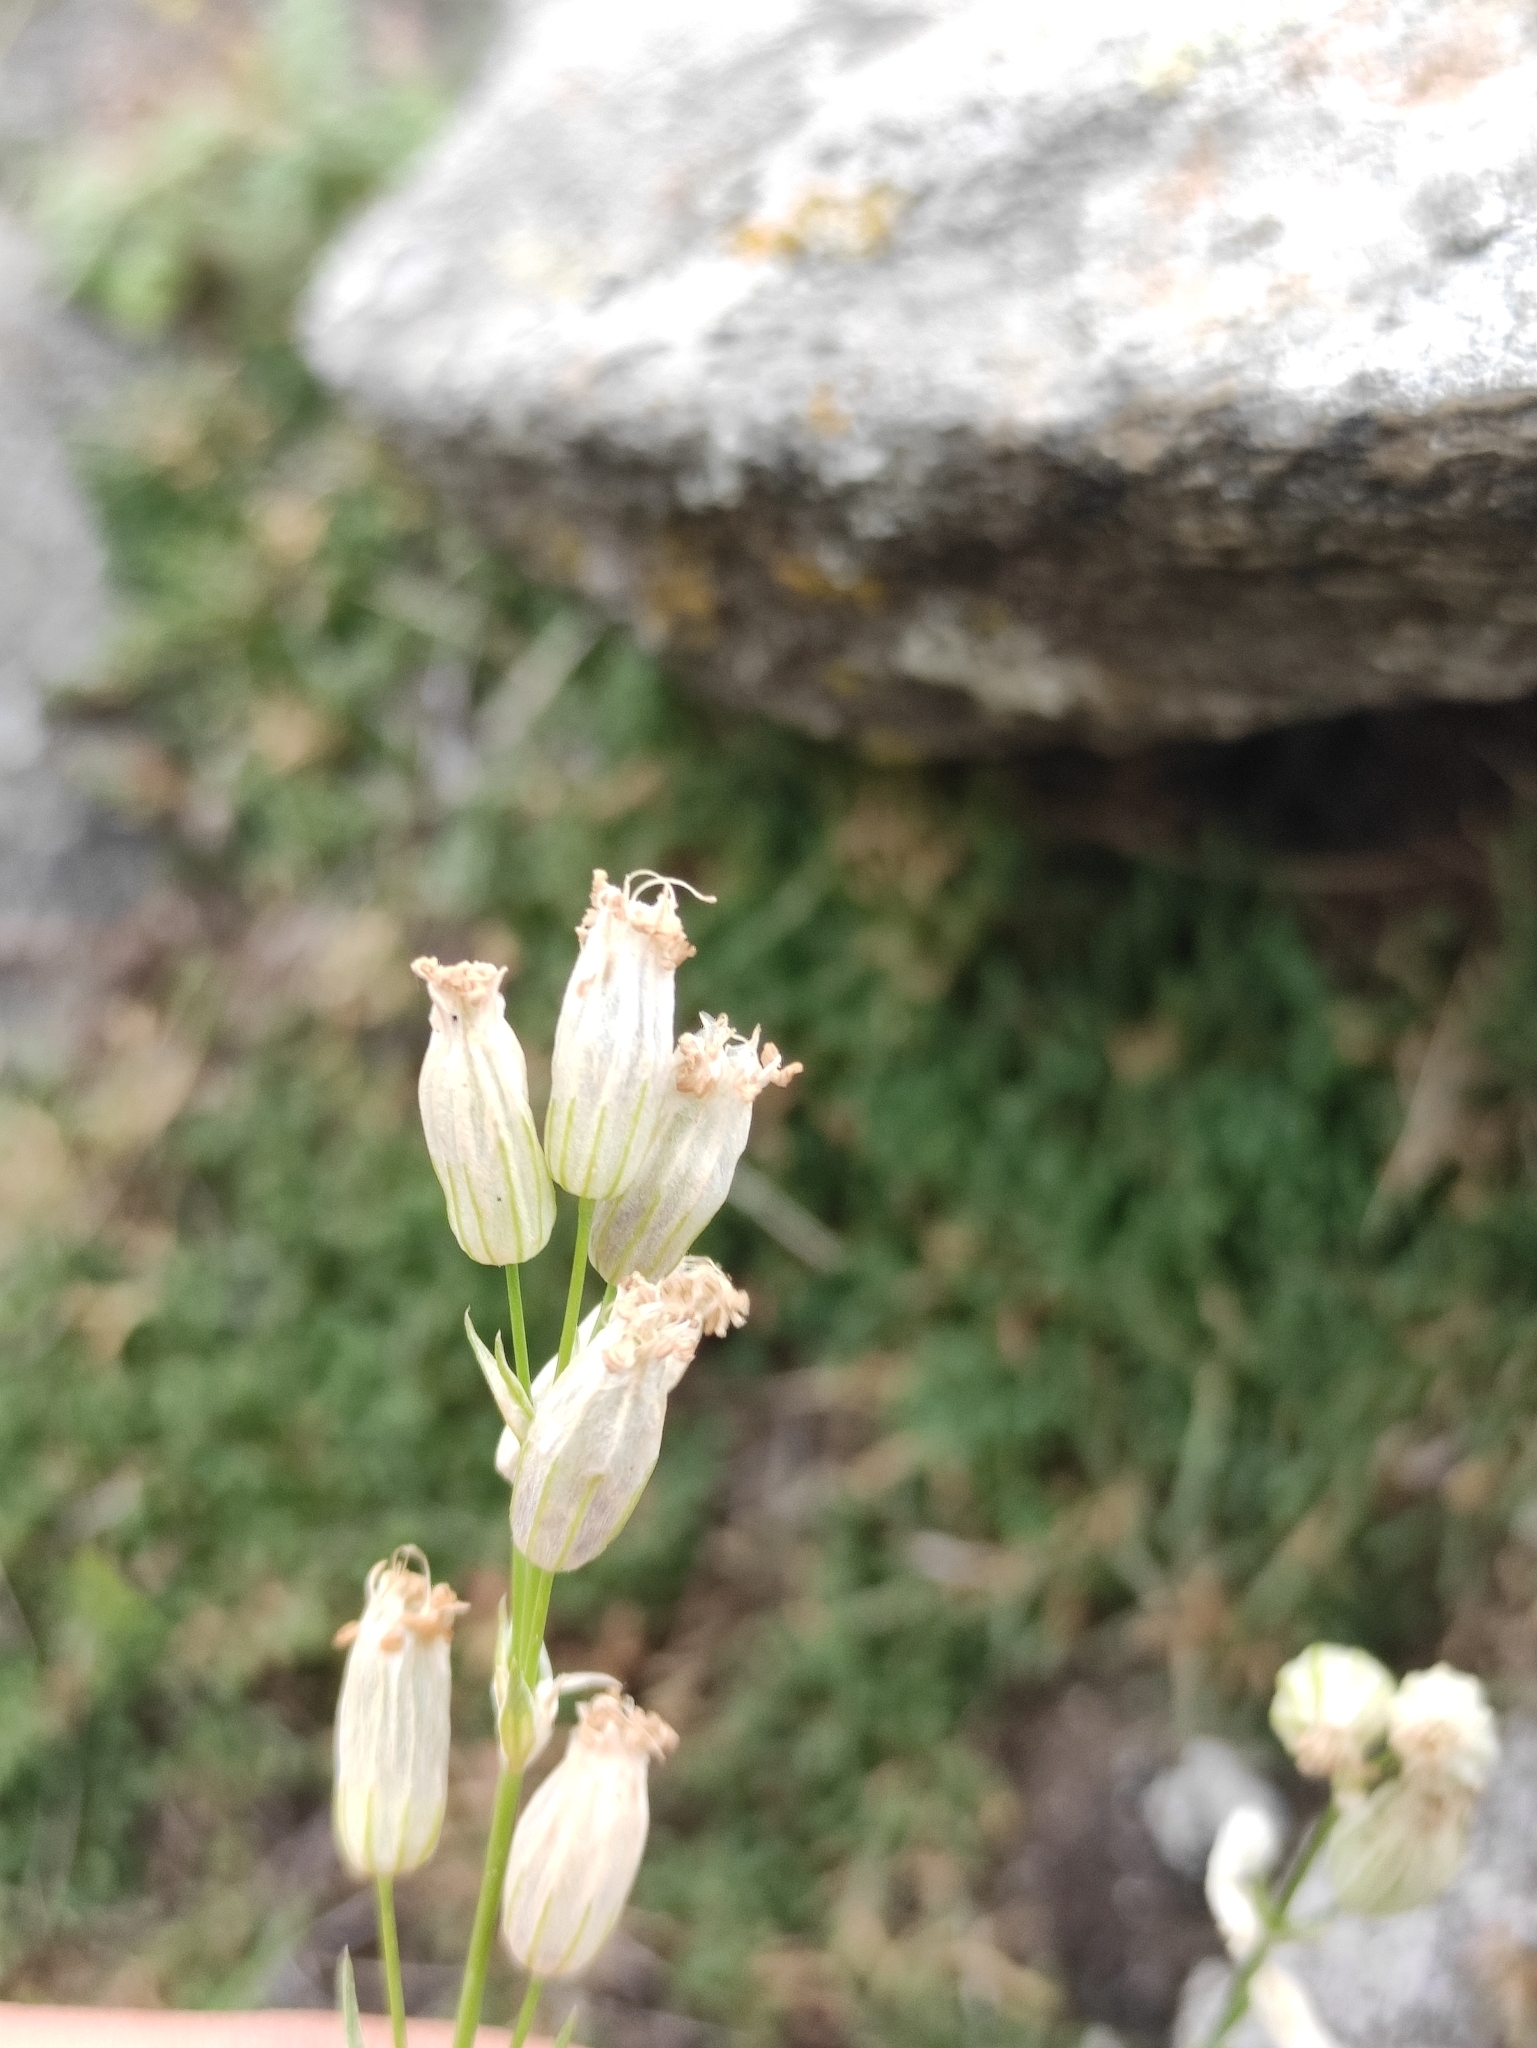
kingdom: Plantae
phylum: Tracheophyta
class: Magnoliopsida
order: Caryophyllales
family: Caryophyllaceae
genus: Silene
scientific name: Silene jeniseensis
